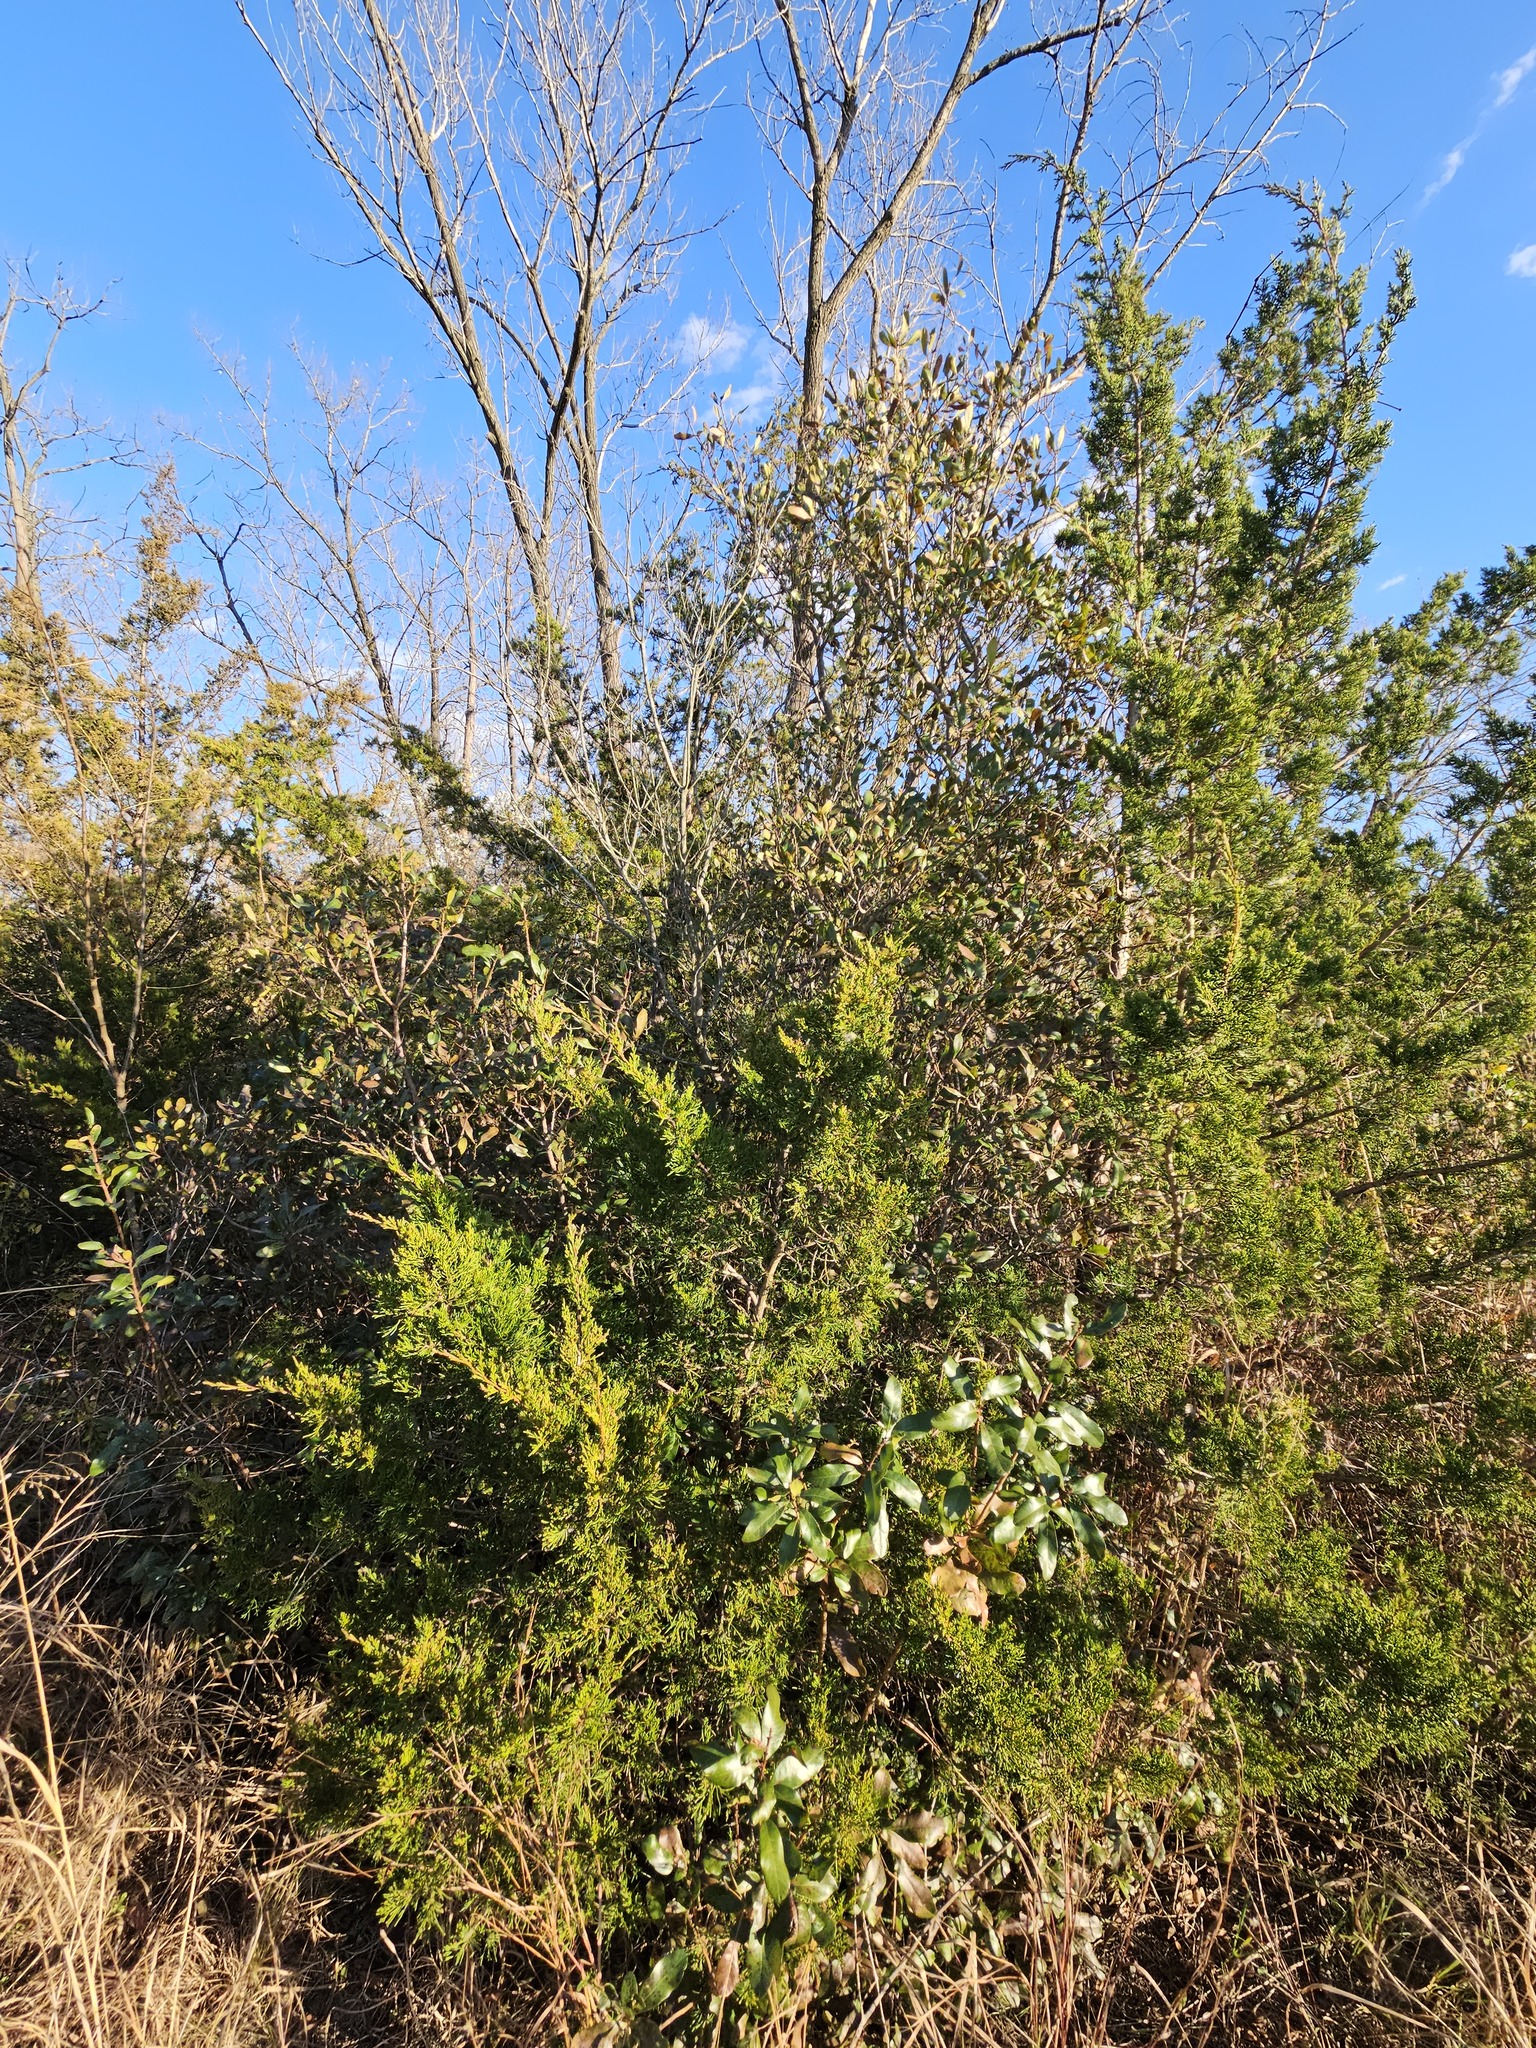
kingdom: Plantae
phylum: Tracheophyta
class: Magnoliopsida
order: Fagales
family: Myricaceae
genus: Morella
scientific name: Morella pensylvanica
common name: Northern bayberry
